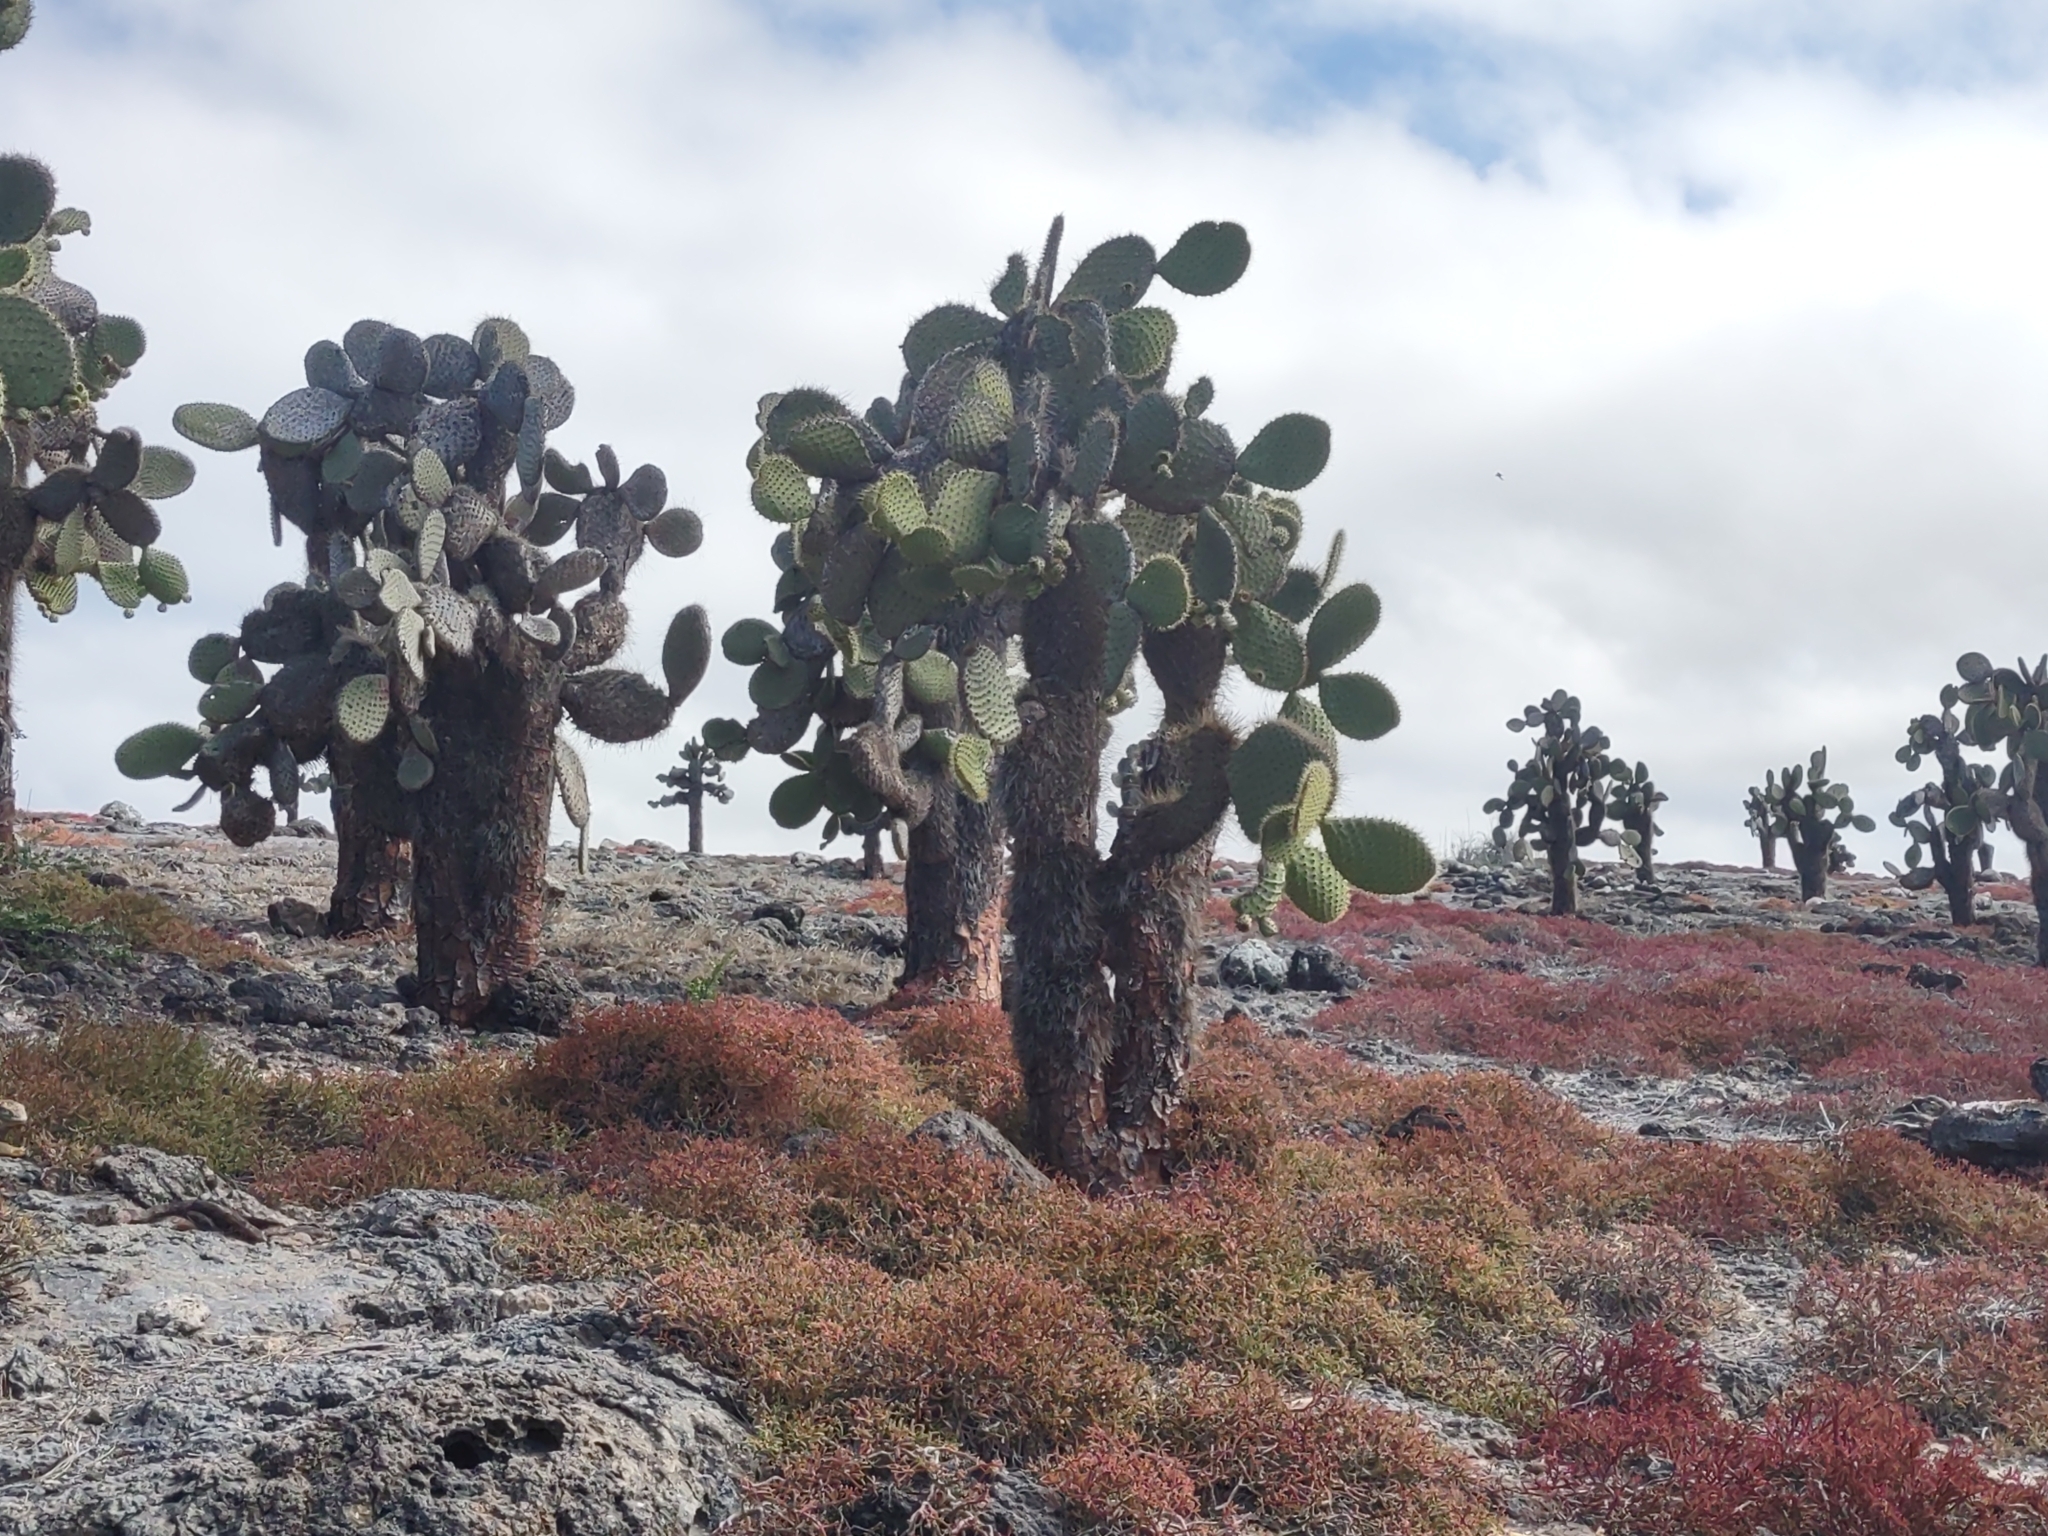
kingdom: Plantae
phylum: Tracheophyta
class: Magnoliopsida
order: Caryophyllales
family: Cactaceae
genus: Opuntia
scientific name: Opuntia galapageia
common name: Galápagos prickly pear
